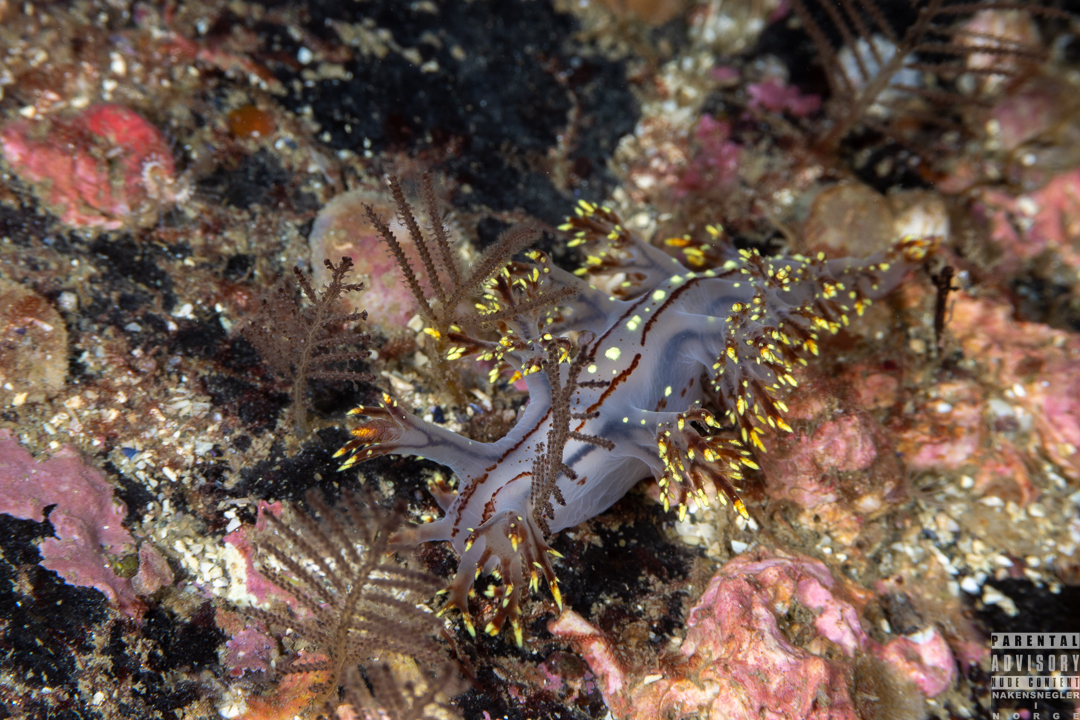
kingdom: Animalia
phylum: Mollusca
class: Gastropoda
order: Nudibranchia
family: Dendronotidae
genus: Dendronotus
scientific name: Dendronotus yrjargul
